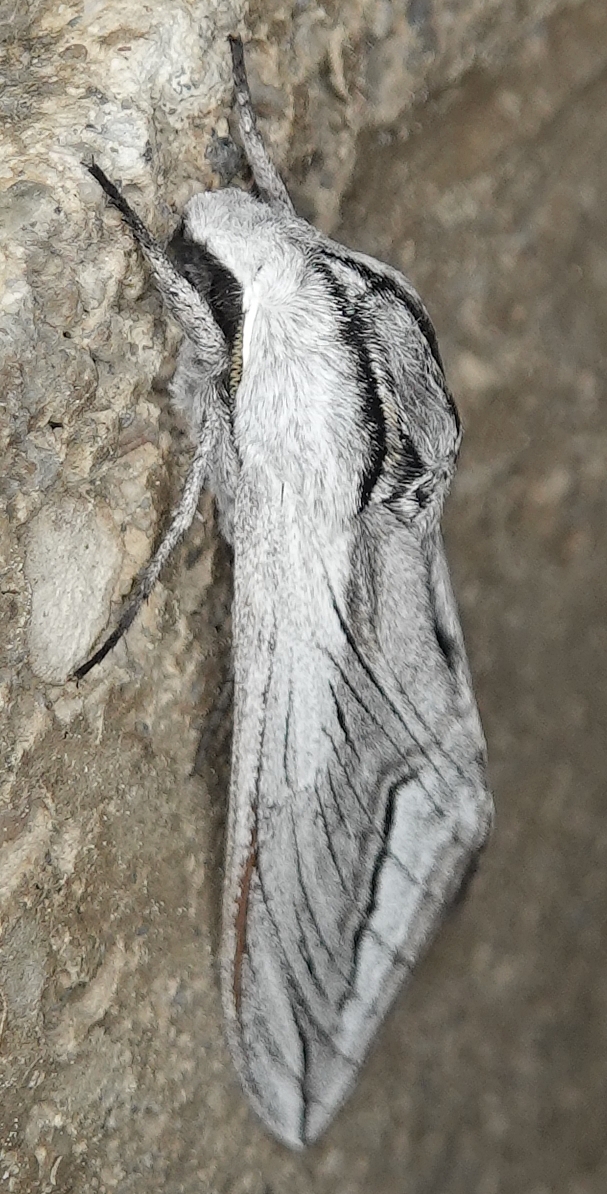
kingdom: Animalia
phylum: Arthropoda
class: Insecta
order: Lepidoptera
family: Sphingidae
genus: Sphinx
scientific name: Sphinx vashti
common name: Snowberry sphinx
